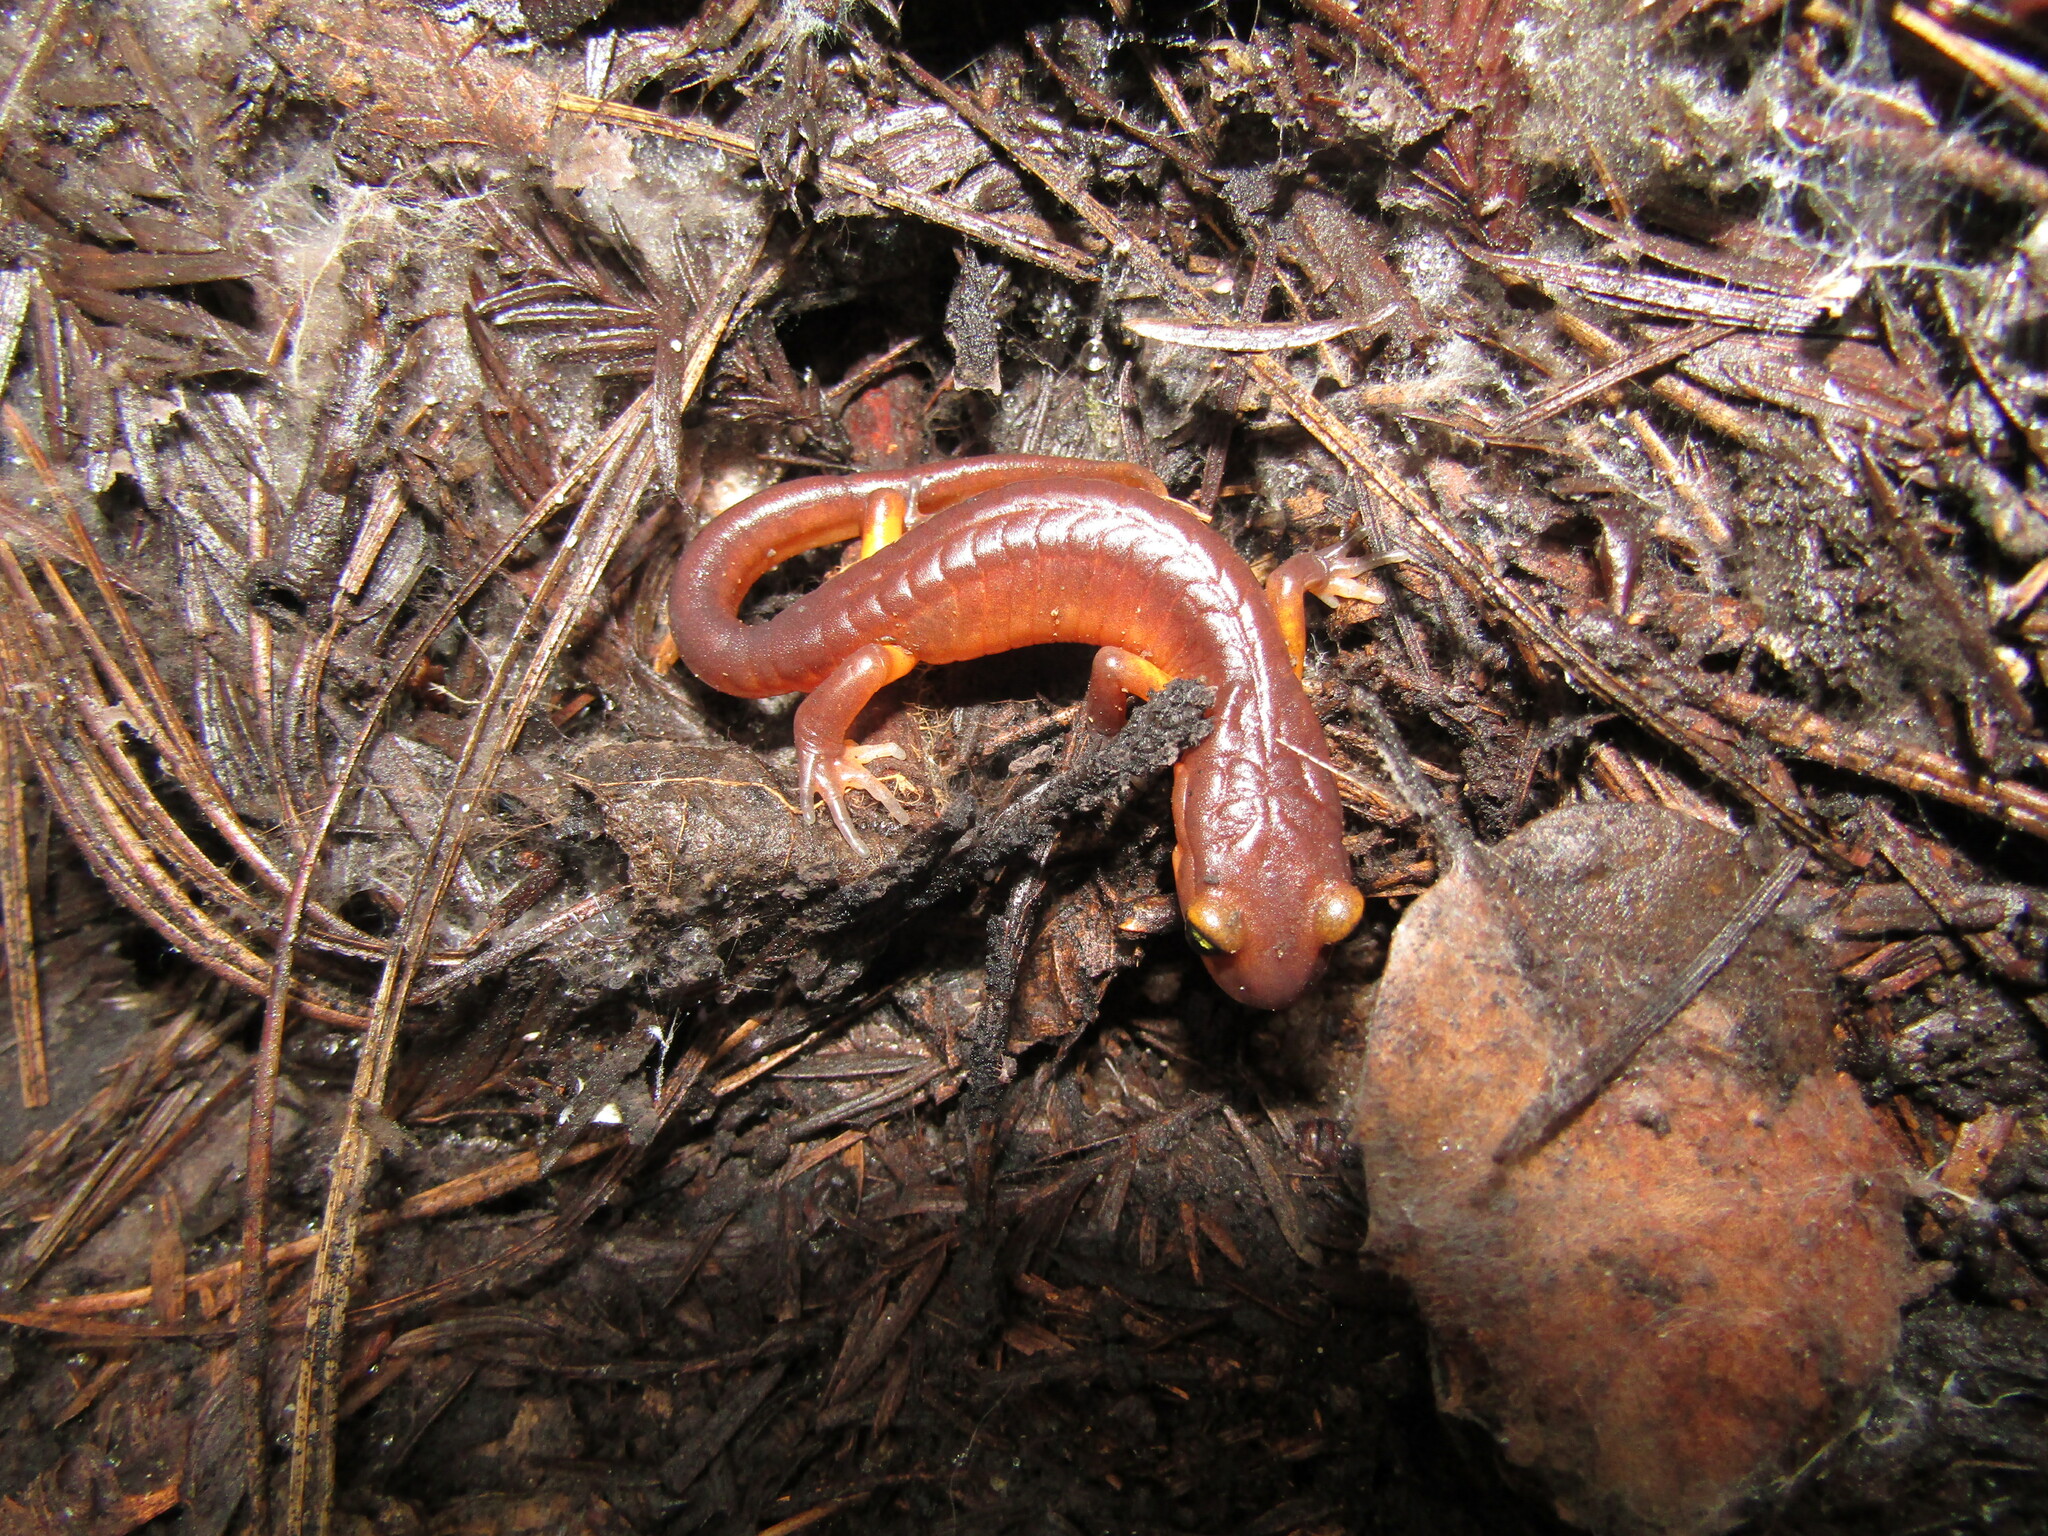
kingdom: Animalia
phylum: Chordata
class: Amphibia
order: Caudata
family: Plethodontidae
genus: Ensatina
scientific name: Ensatina eschscholtzii
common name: Ensatina
